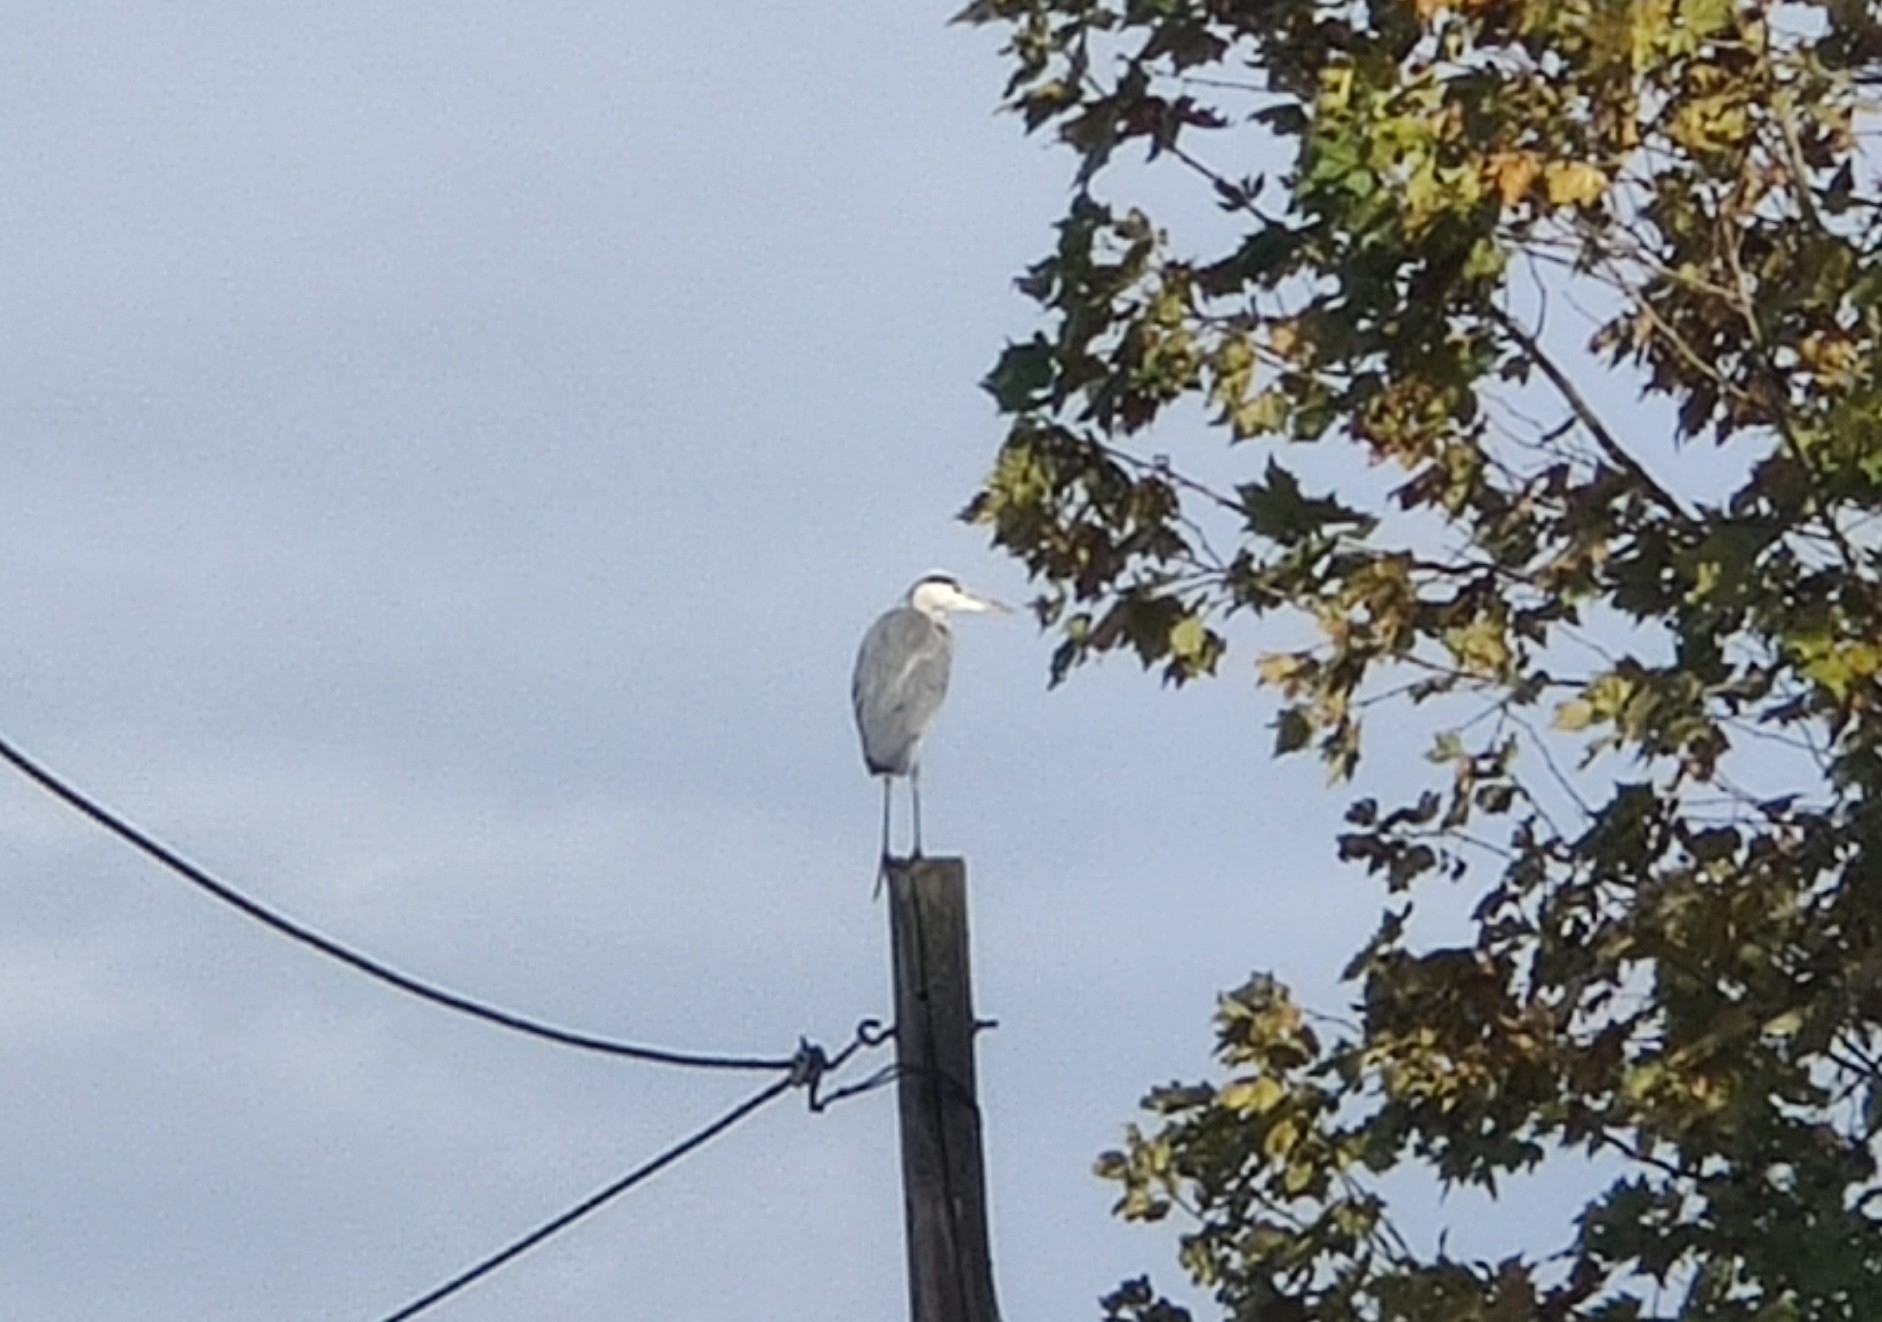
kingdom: Animalia
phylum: Chordata
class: Aves
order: Pelecaniformes
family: Ardeidae
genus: Ardea
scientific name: Ardea cinerea
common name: Grey heron
